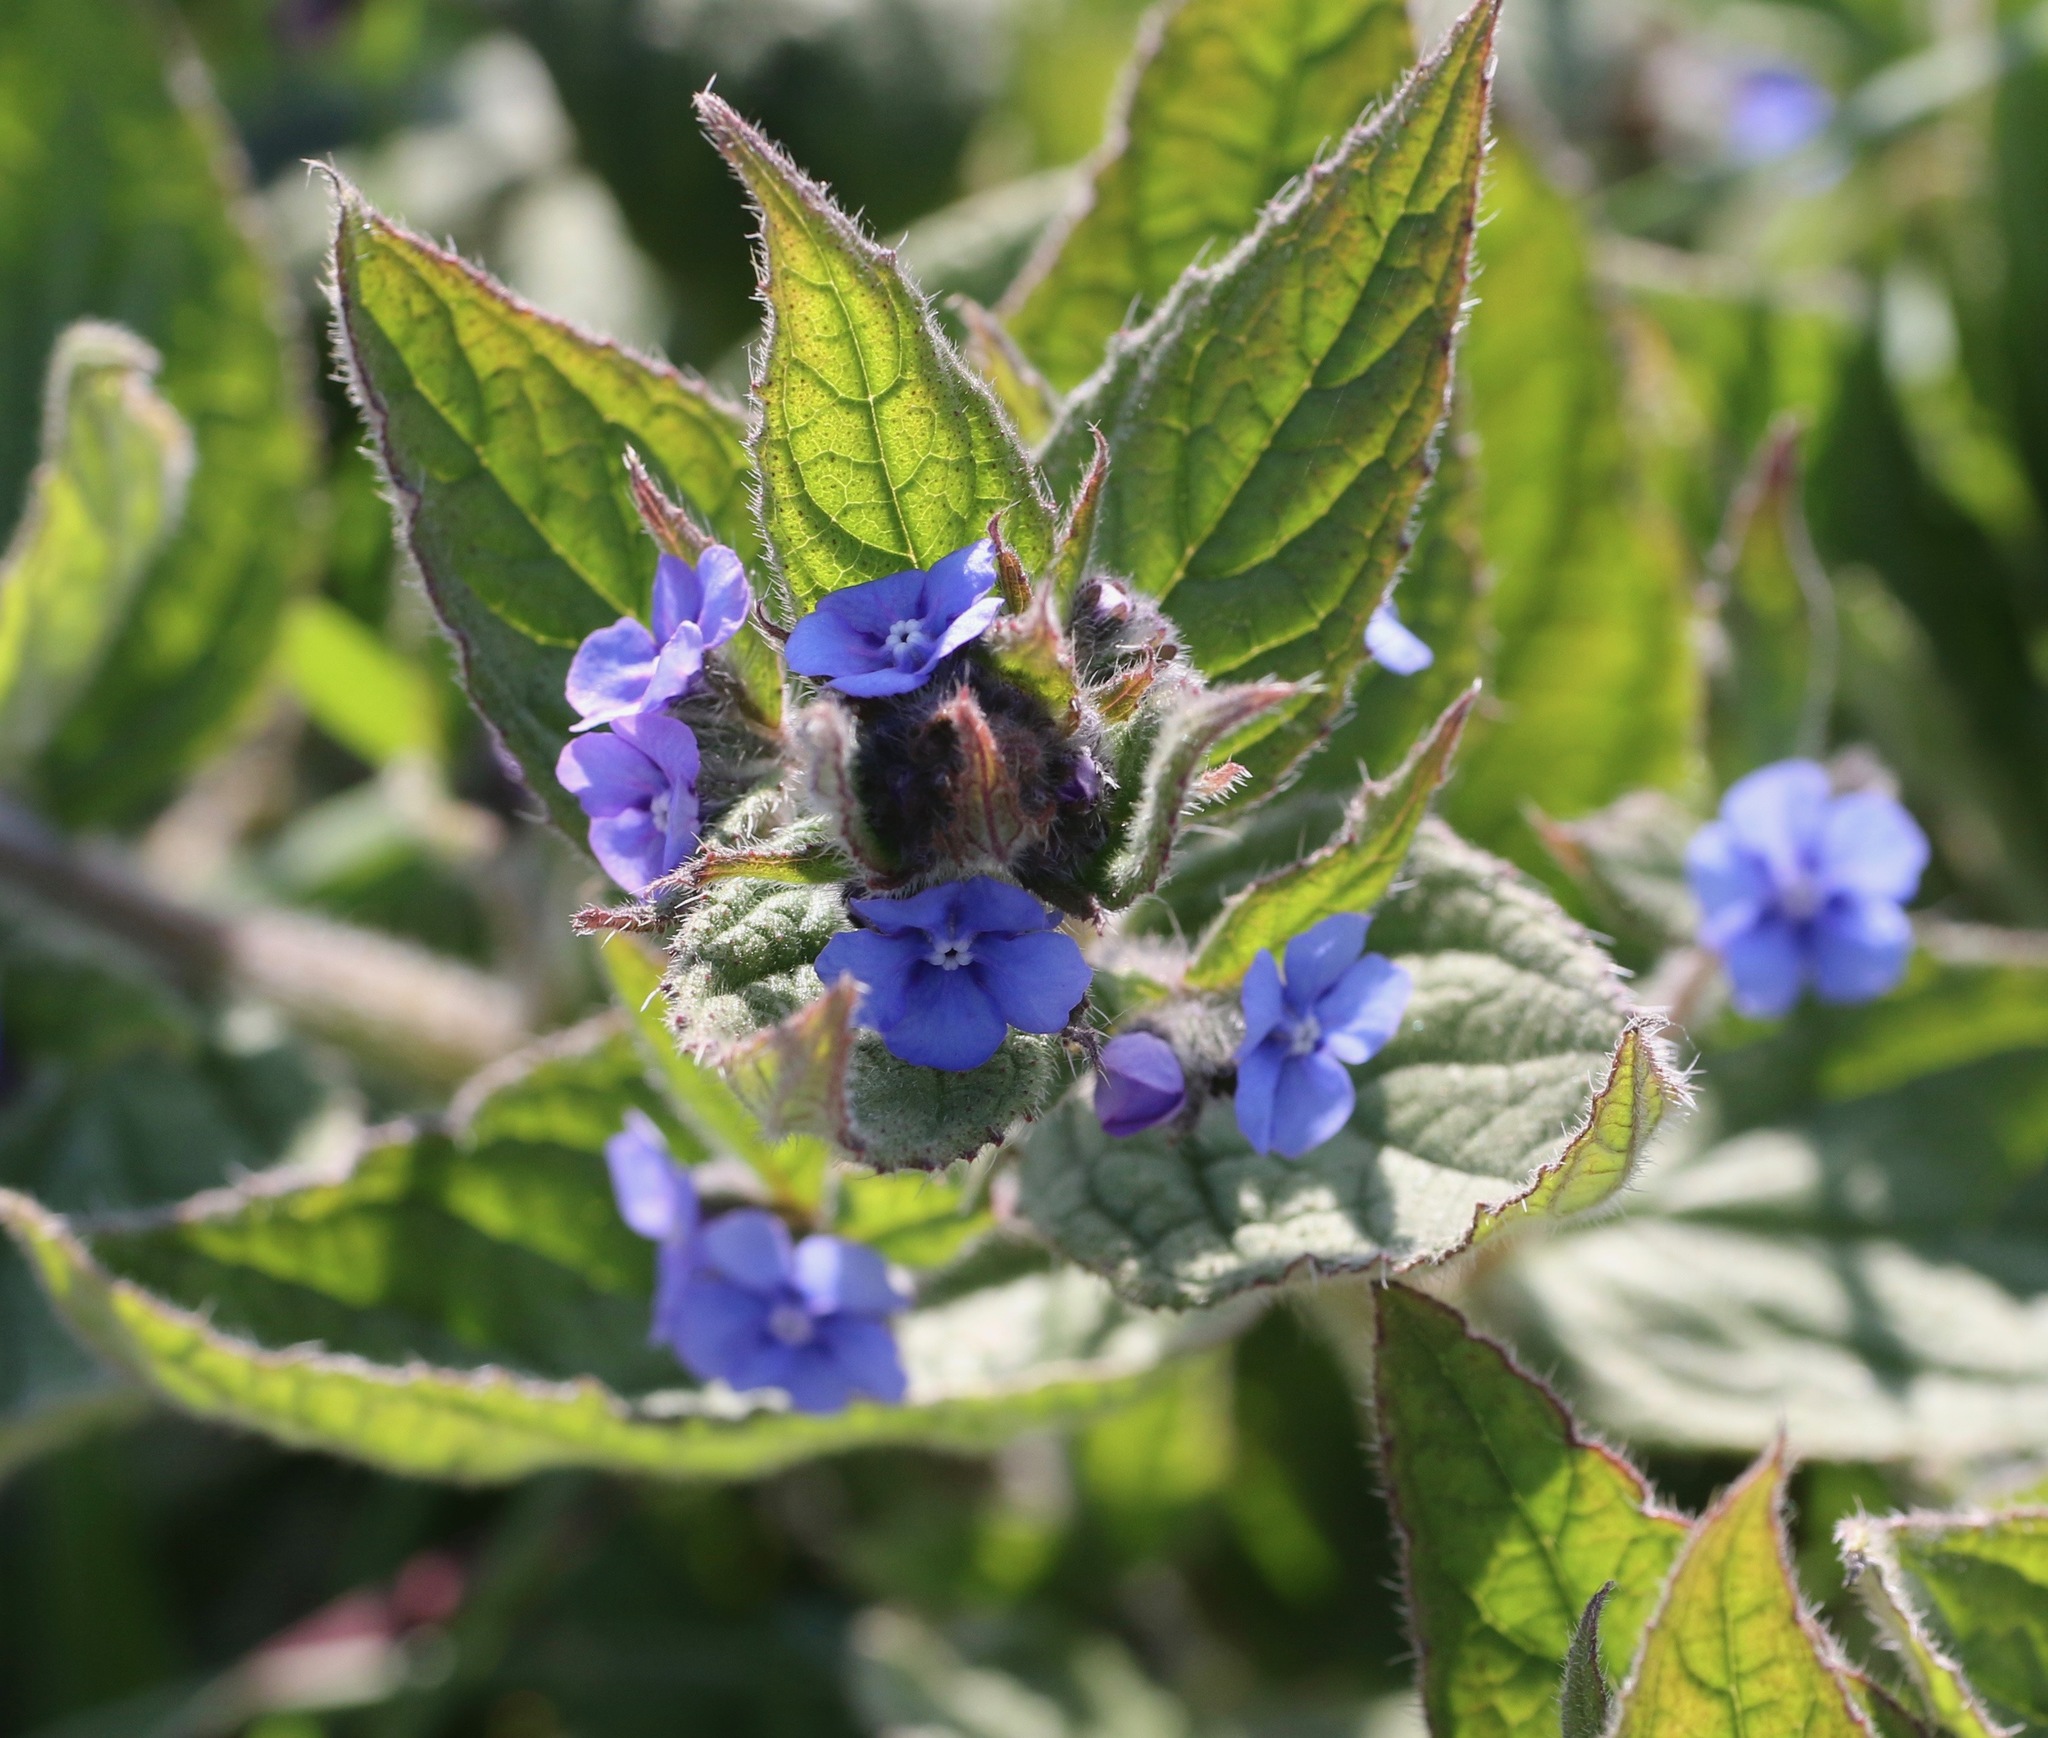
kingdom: Plantae
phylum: Tracheophyta
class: Magnoliopsida
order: Boraginales
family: Boraginaceae
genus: Pentaglottis
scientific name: Pentaglottis sempervirens
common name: Green alkanet
